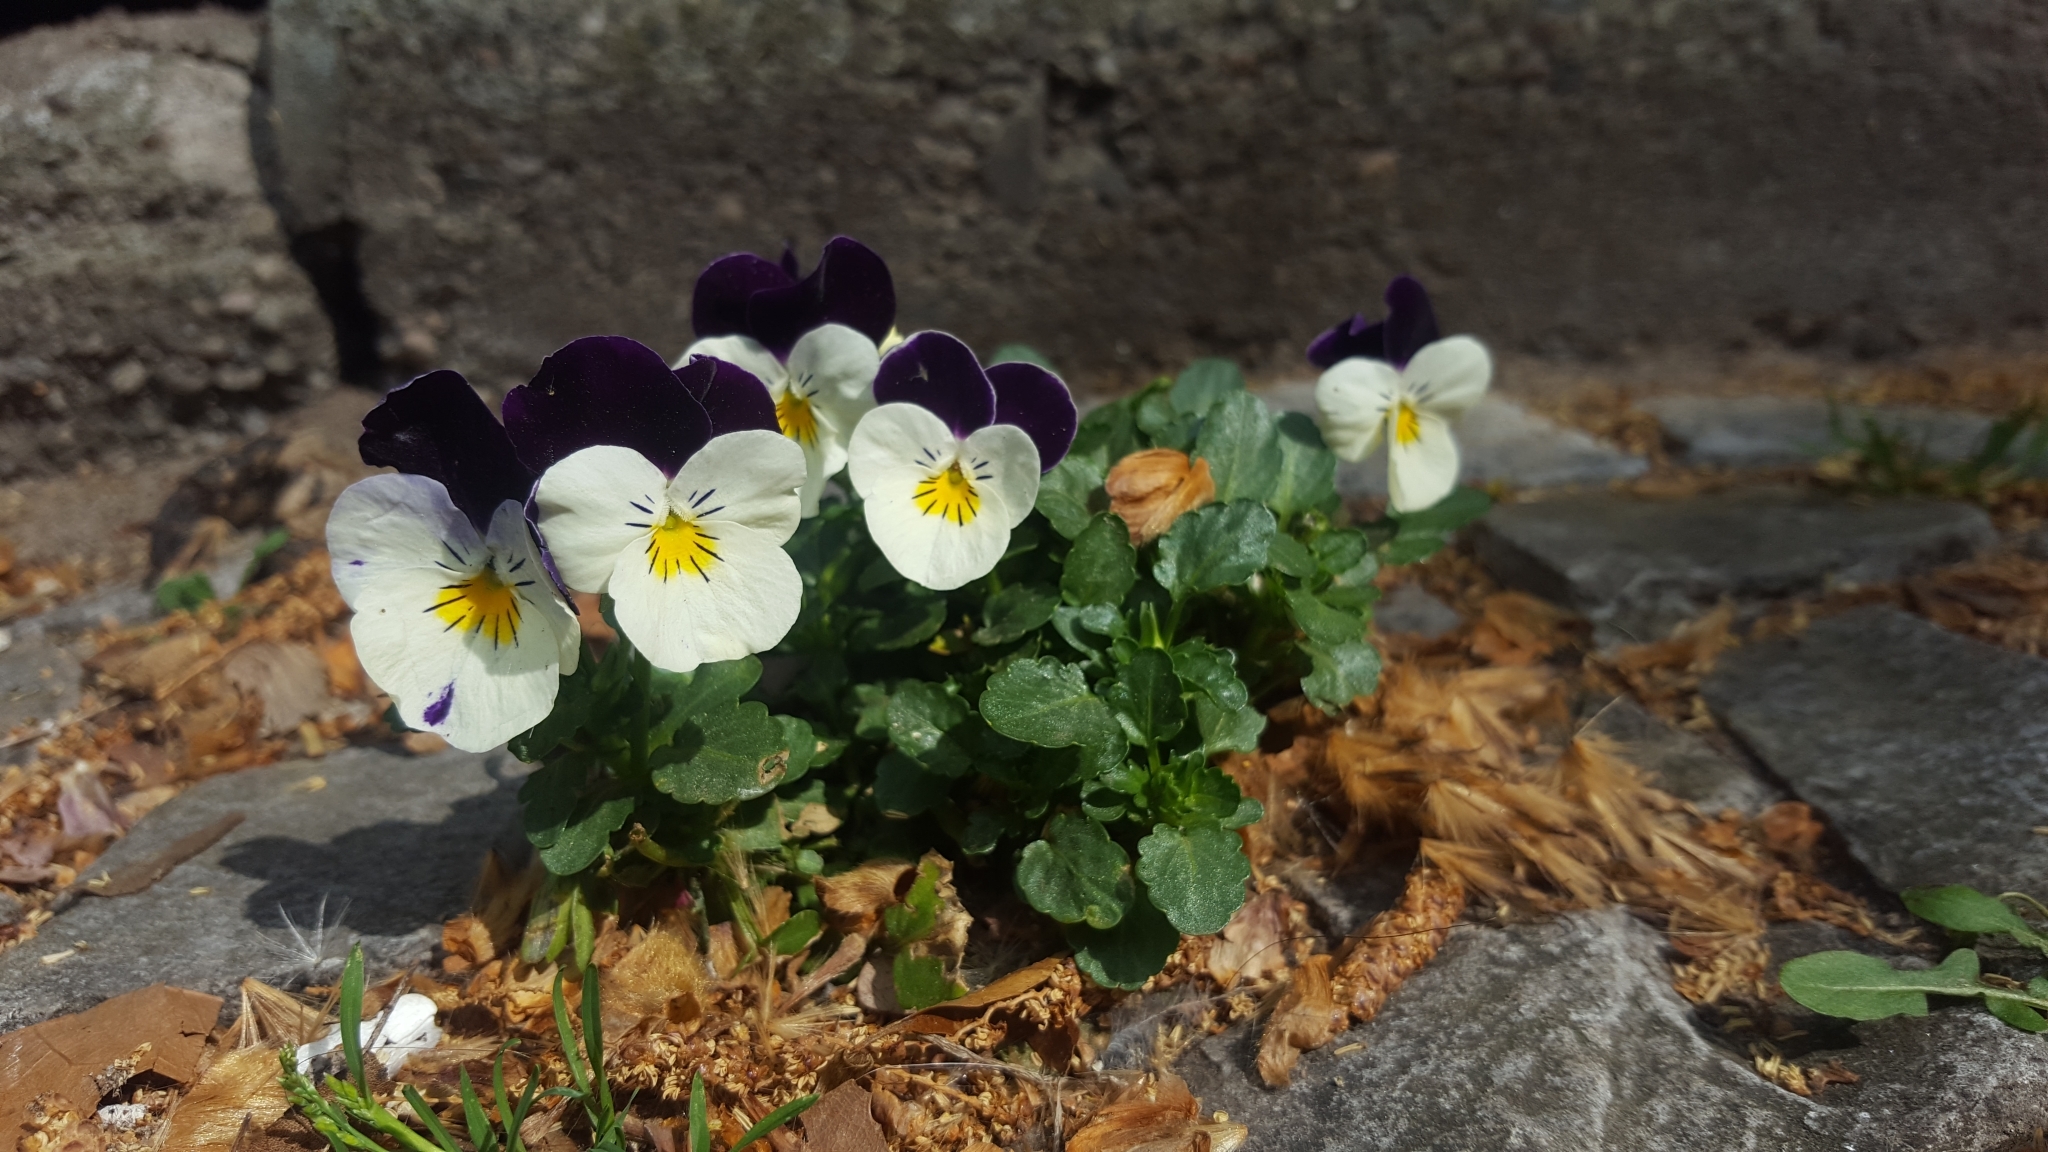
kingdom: Plantae
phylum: Tracheophyta
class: Magnoliopsida
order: Malpighiales
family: Violaceae
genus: Viola
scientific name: Viola wittrockiana
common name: Garden pansy
